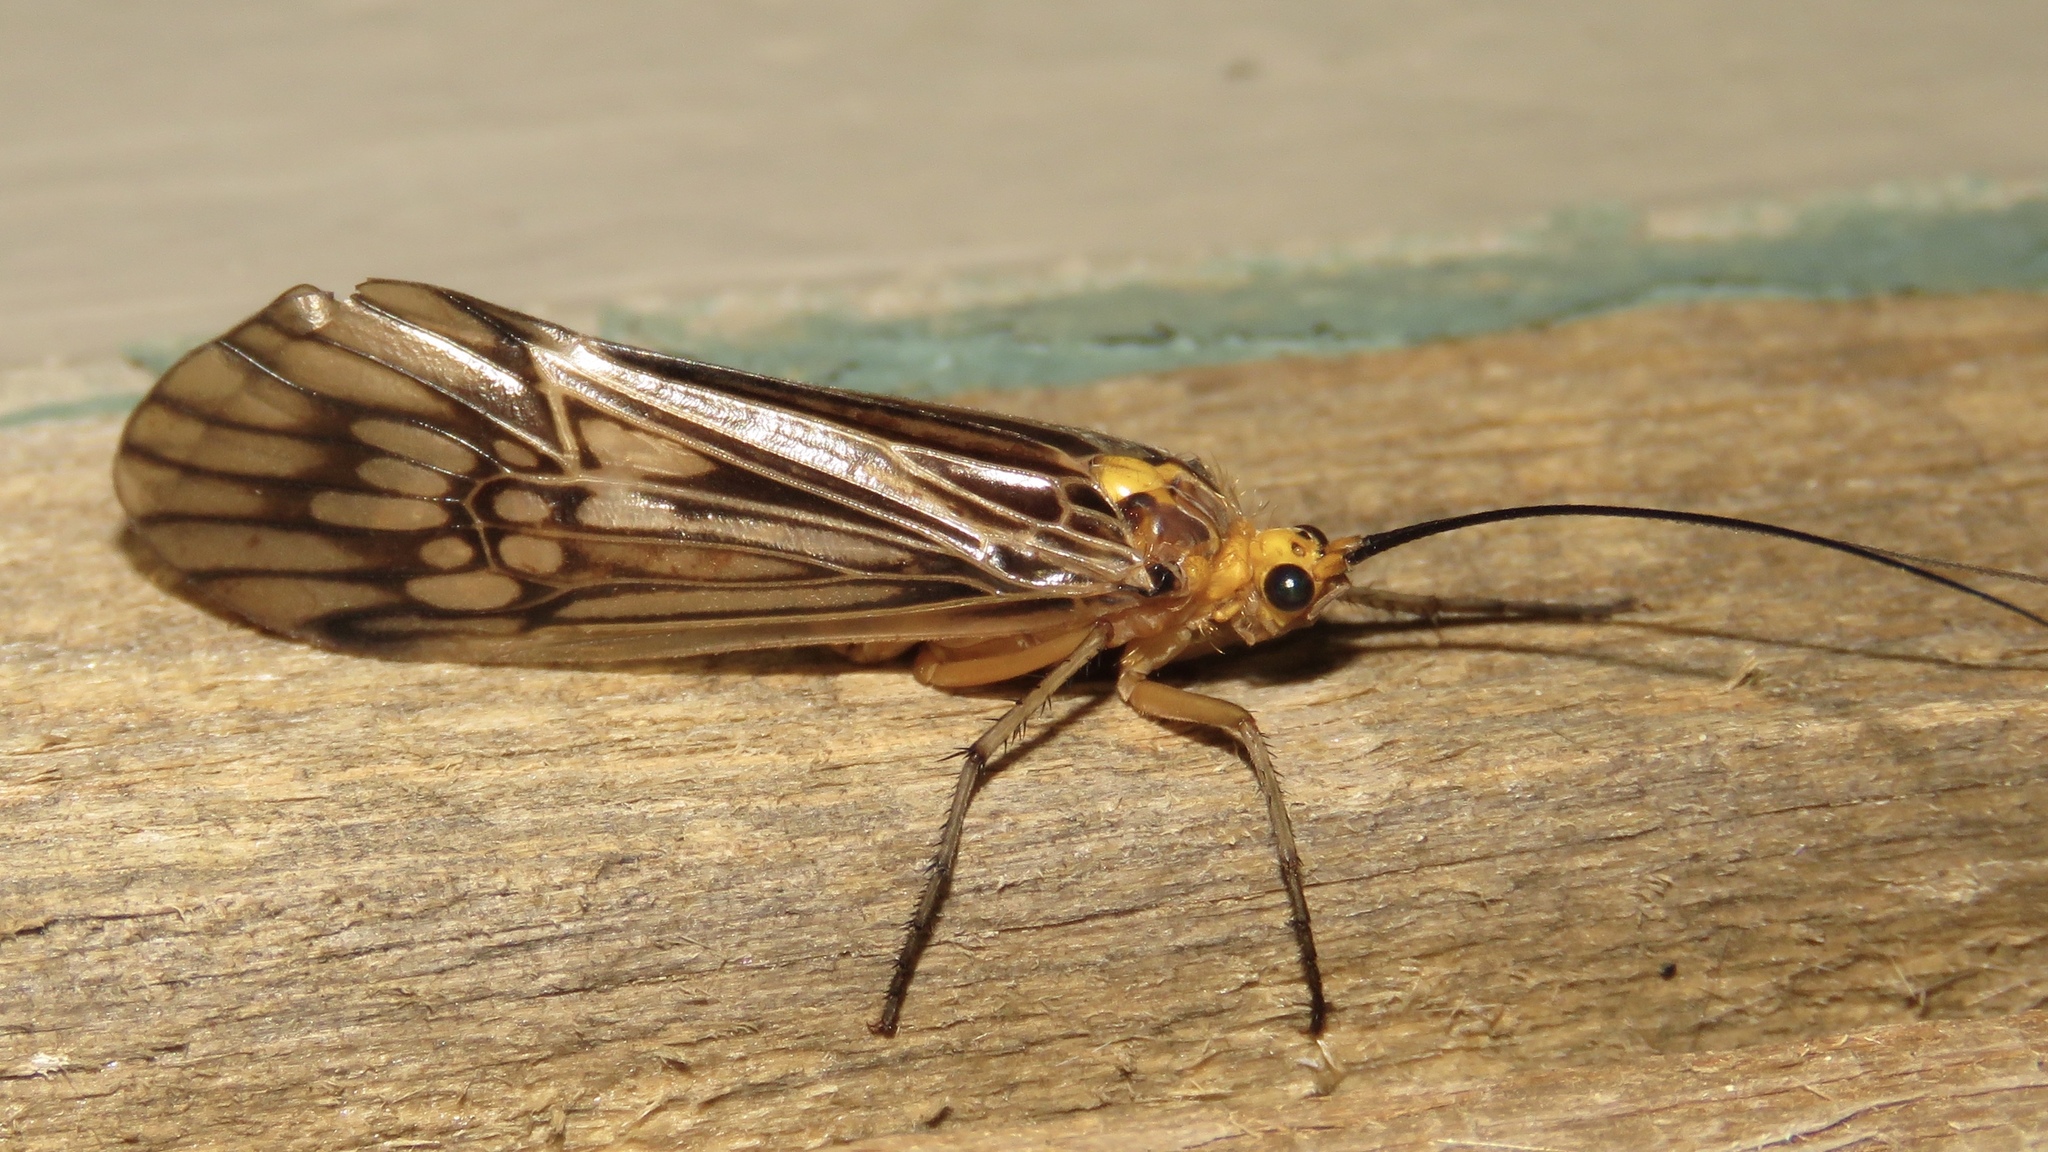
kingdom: Animalia
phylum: Arthropoda
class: Insecta
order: Trichoptera
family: Limnephilidae
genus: Hydatophylax
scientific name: Hydatophylax argus
